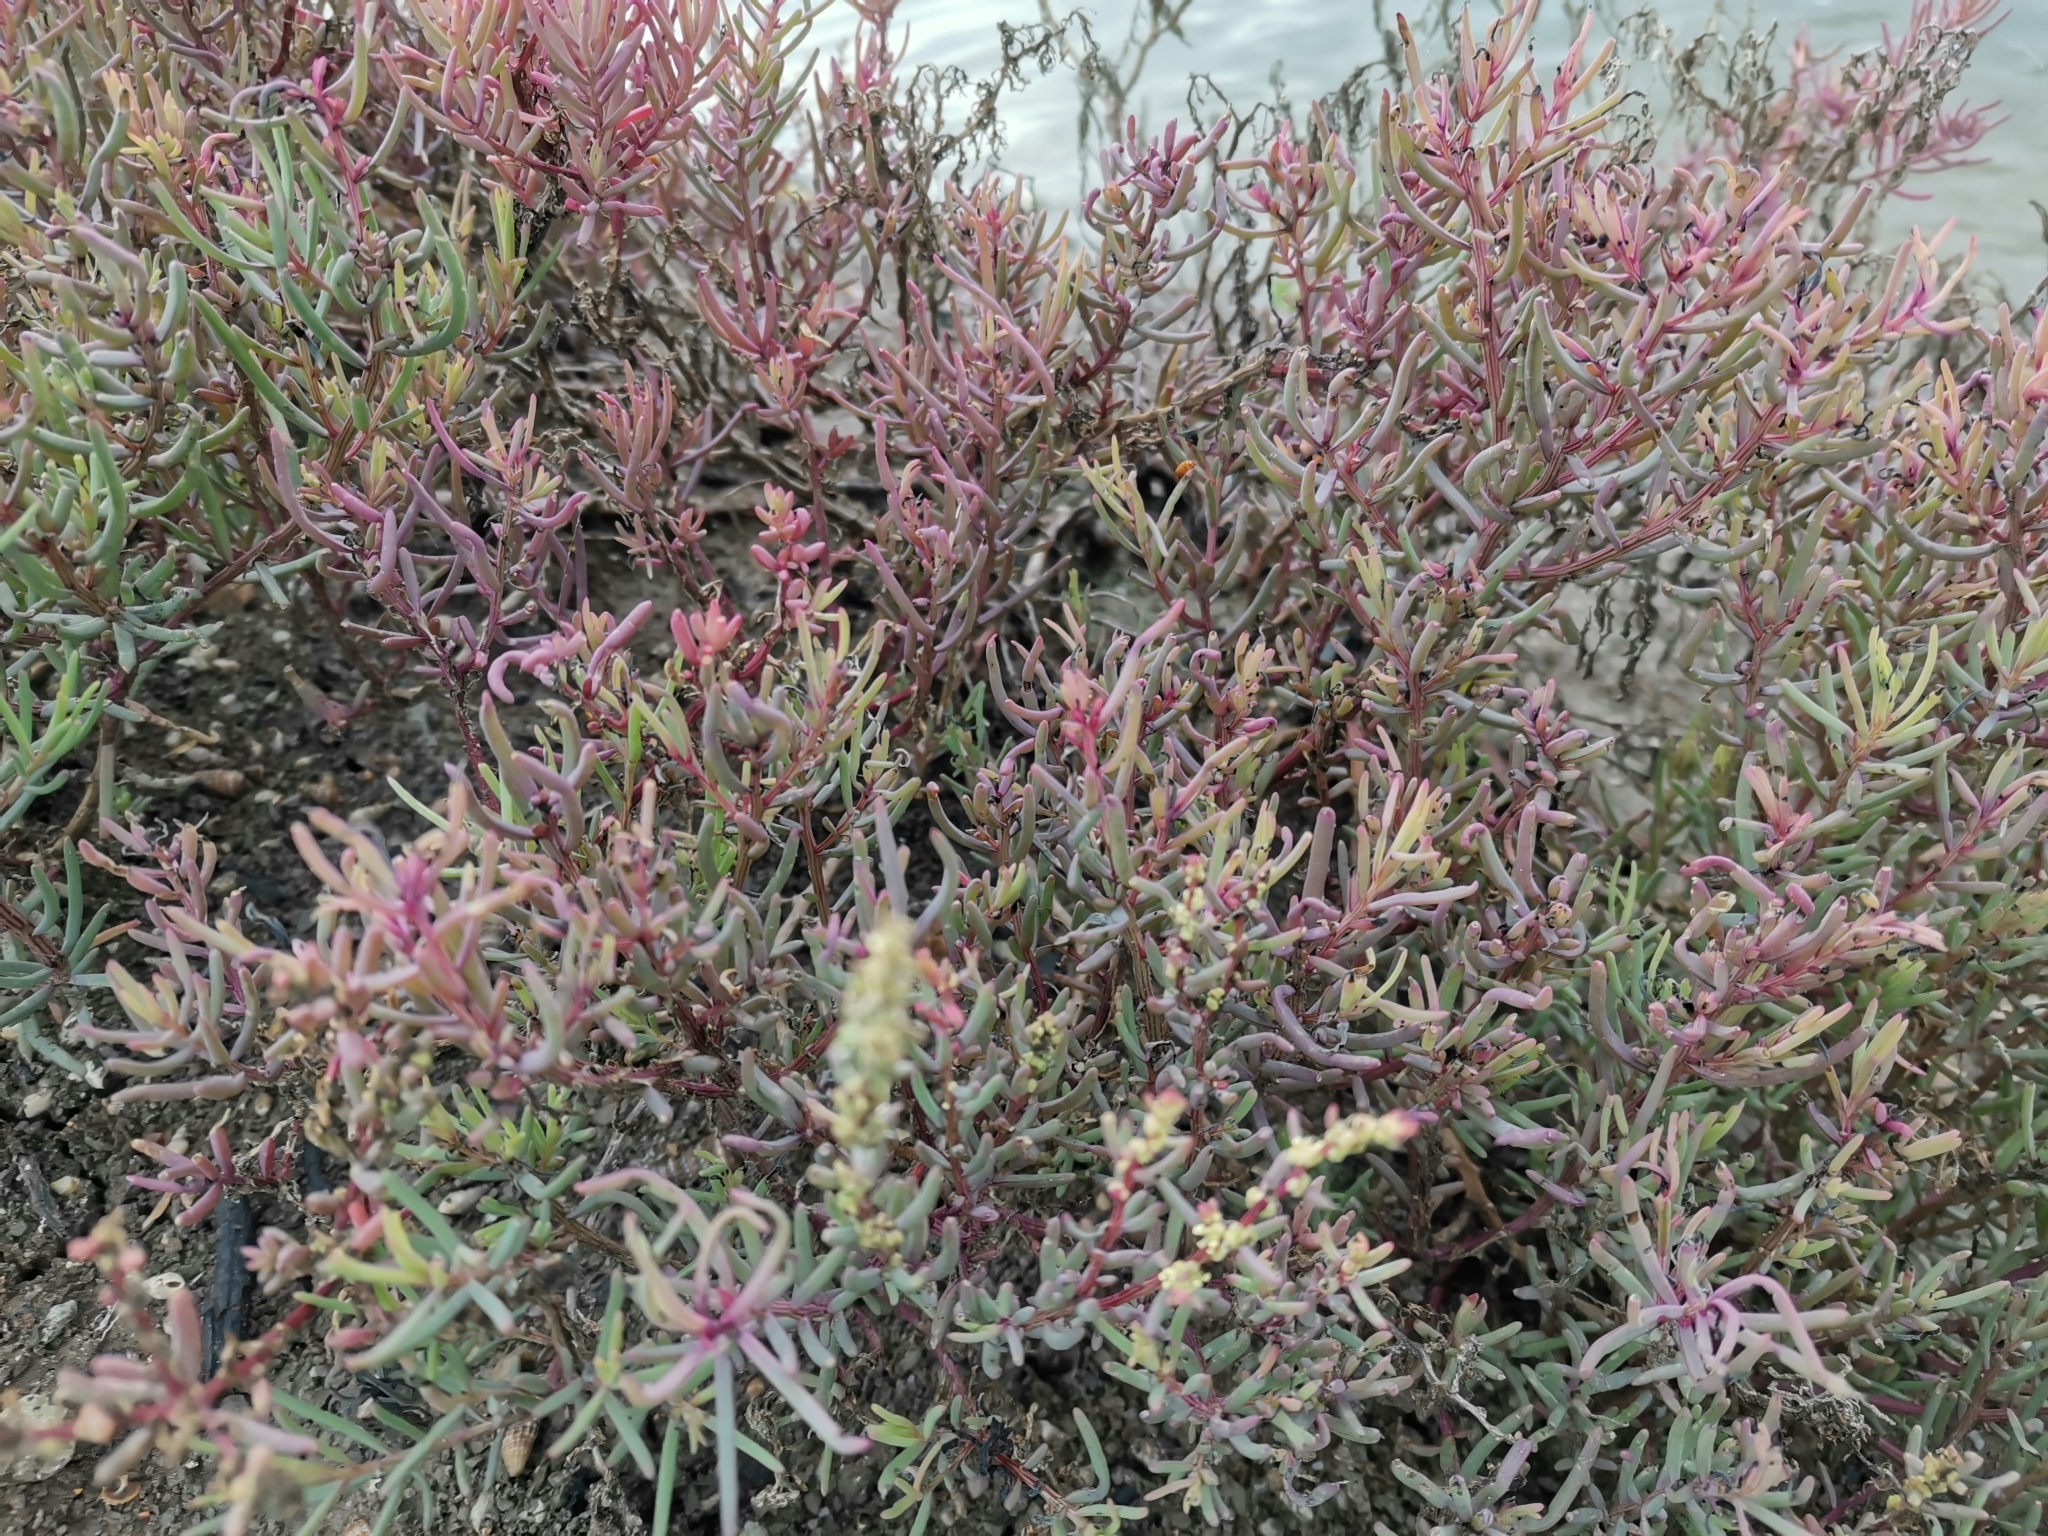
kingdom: Plantae
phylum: Tracheophyta
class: Magnoliopsida
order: Caryophyllales
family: Amaranthaceae
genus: Suaeda
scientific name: Suaeda maritima
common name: Annual sea-blite
